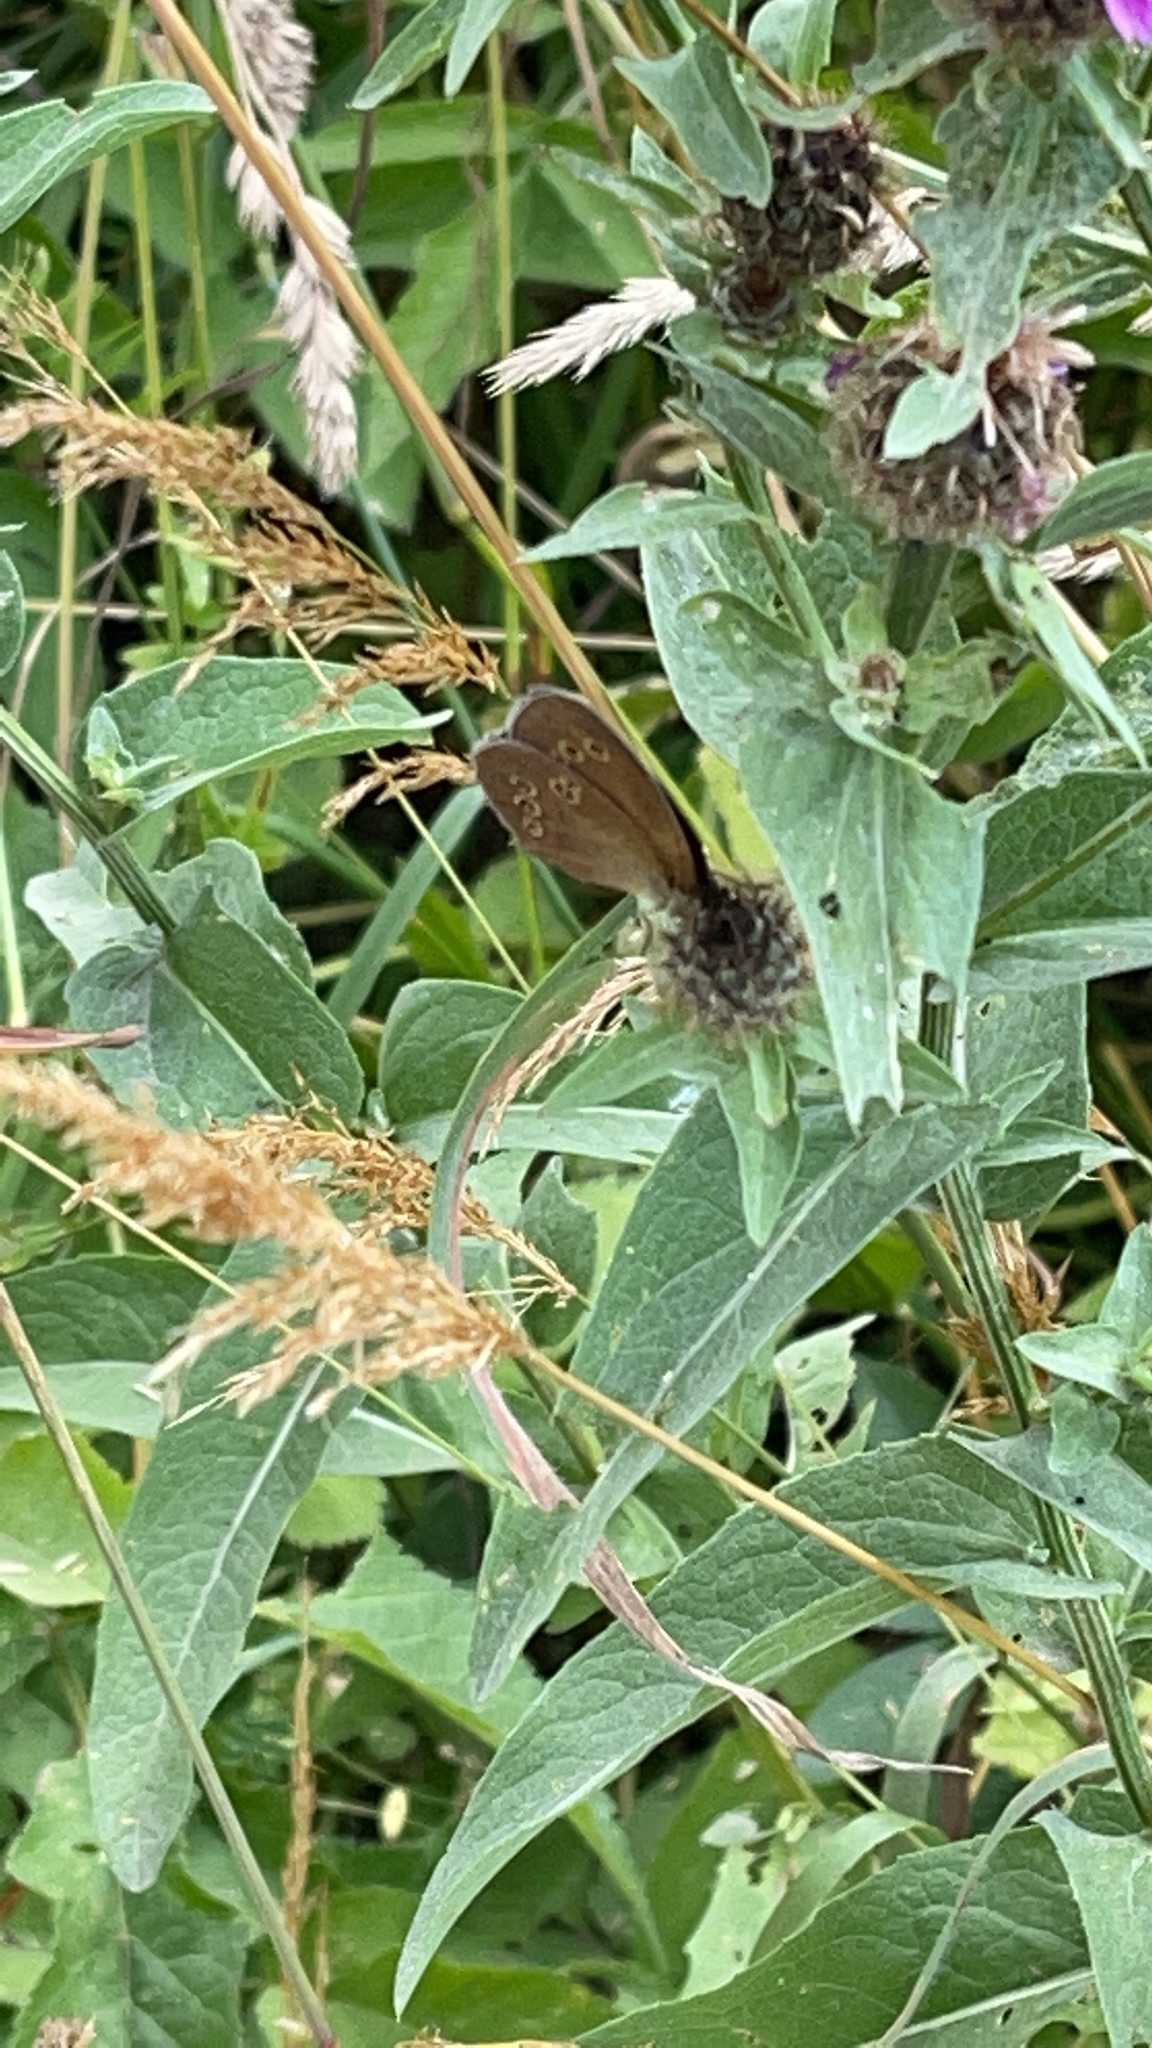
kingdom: Animalia
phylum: Arthropoda
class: Insecta
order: Lepidoptera
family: Nymphalidae
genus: Aphantopus
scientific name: Aphantopus hyperantus
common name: Ringlet
